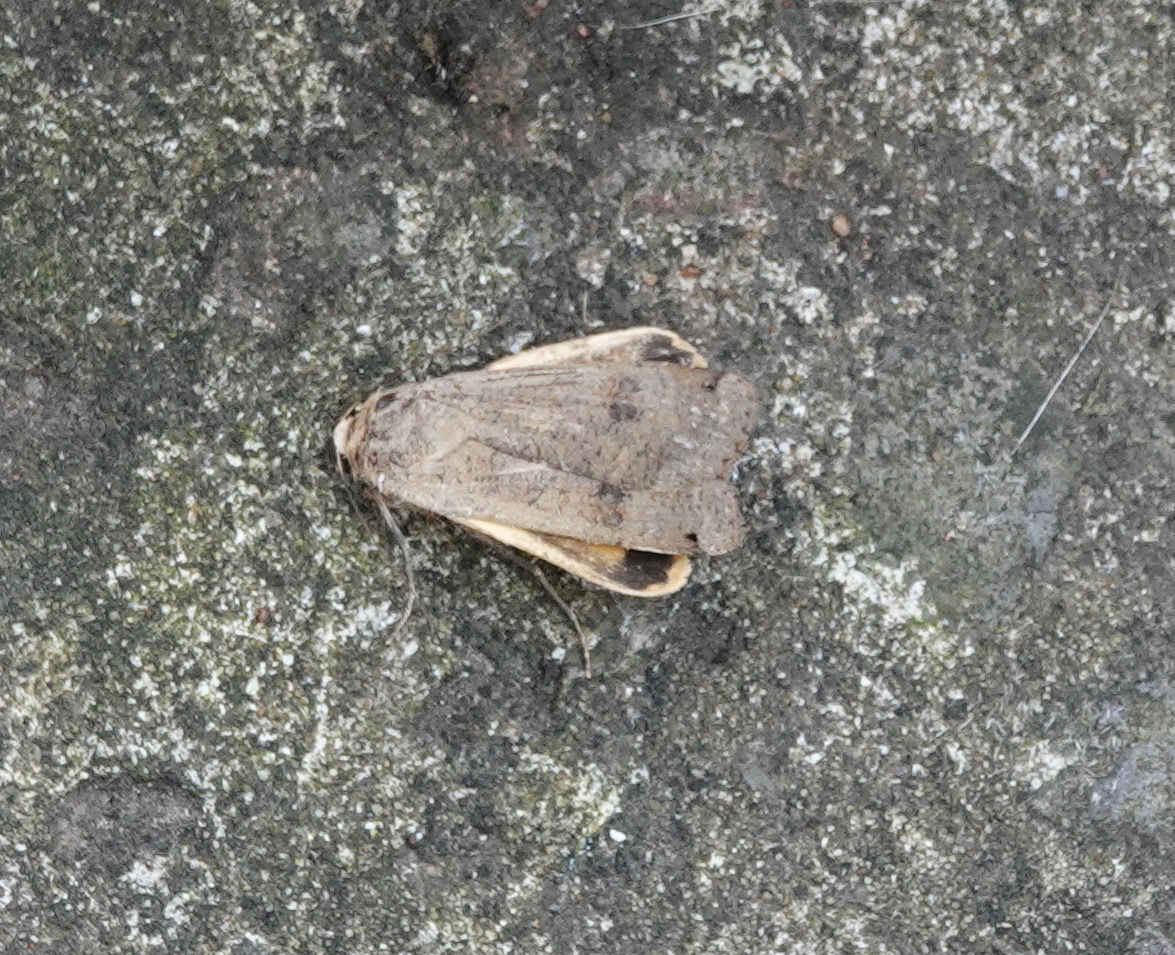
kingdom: Animalia
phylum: Arthropoda
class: Insecta
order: Lepidoptera
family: Noctuidae
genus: Noctua
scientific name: Noctua pronuba
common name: Large yellow underwing
